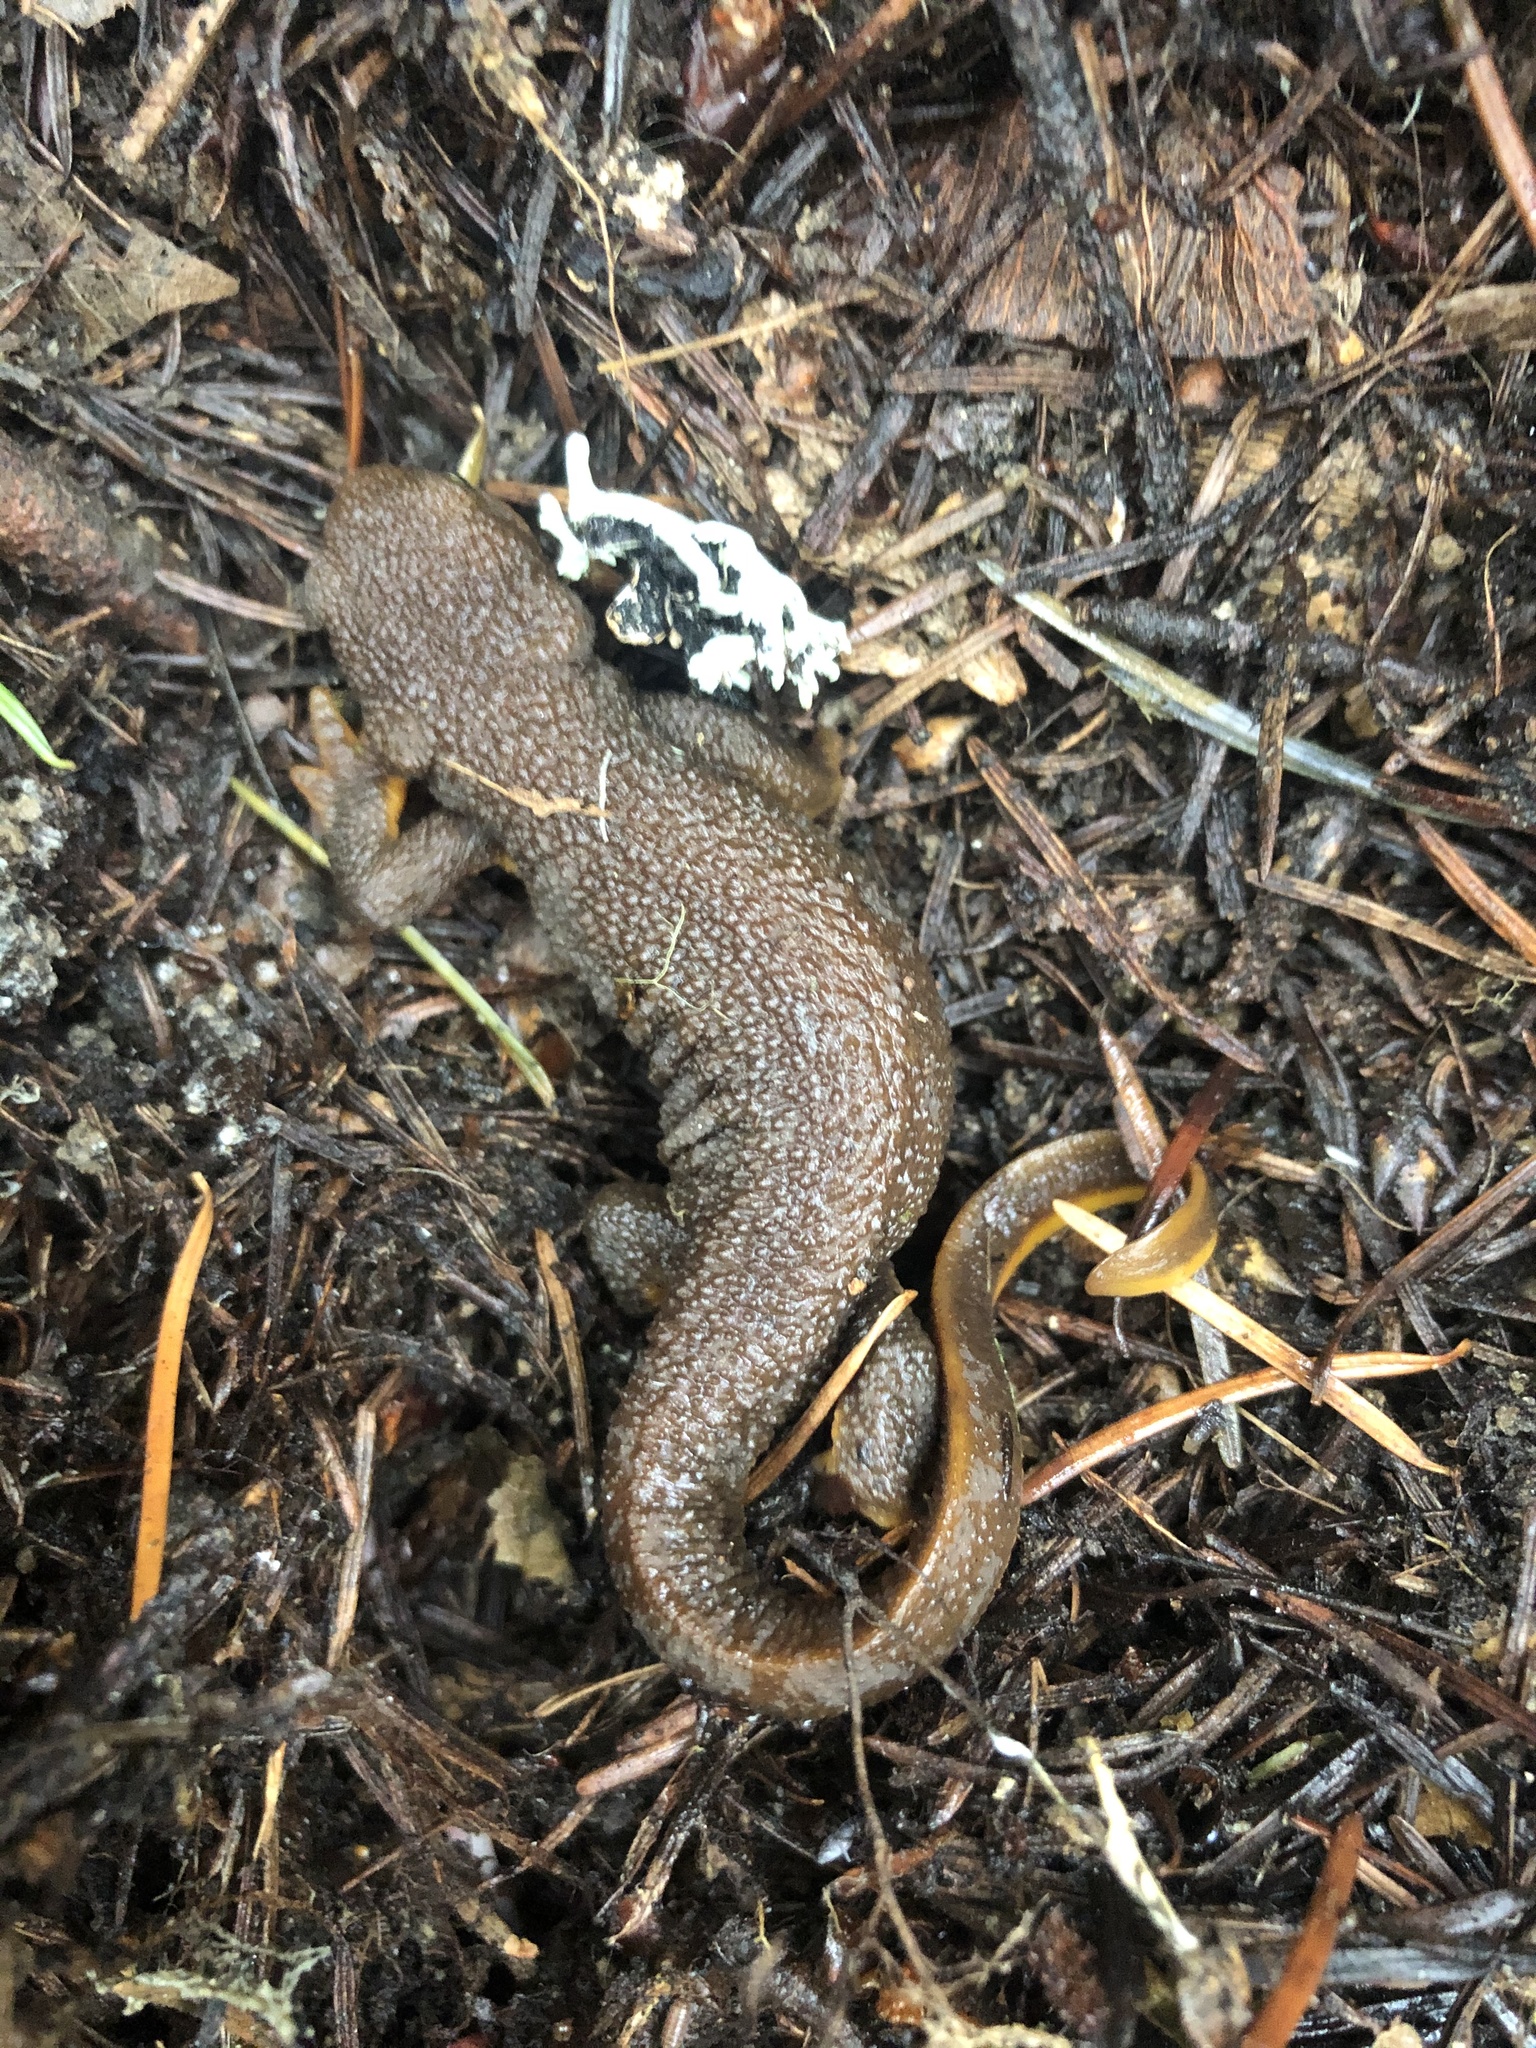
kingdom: Animalia
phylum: Chordata
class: Amphibia
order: Caudata
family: Salamandridae
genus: Taricha
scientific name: Taricha granulosa
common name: Roughskin newt
